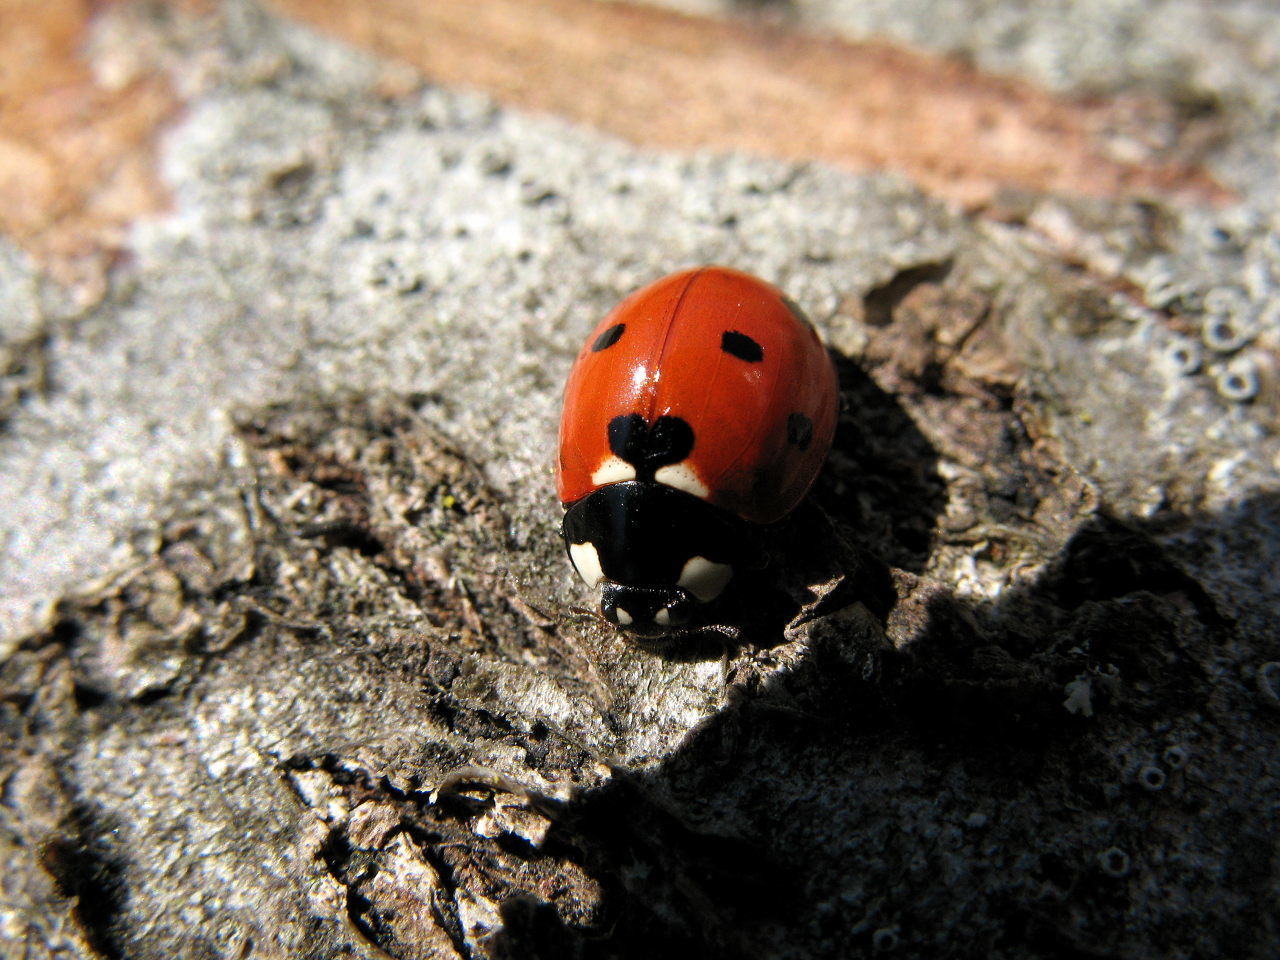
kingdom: Animalia
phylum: Arthropoda
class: Insecta
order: Coleoptera
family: Coccinellidae
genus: Coccinella
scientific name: Coccinella septempunctata
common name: Sevenspotted lady beetle
